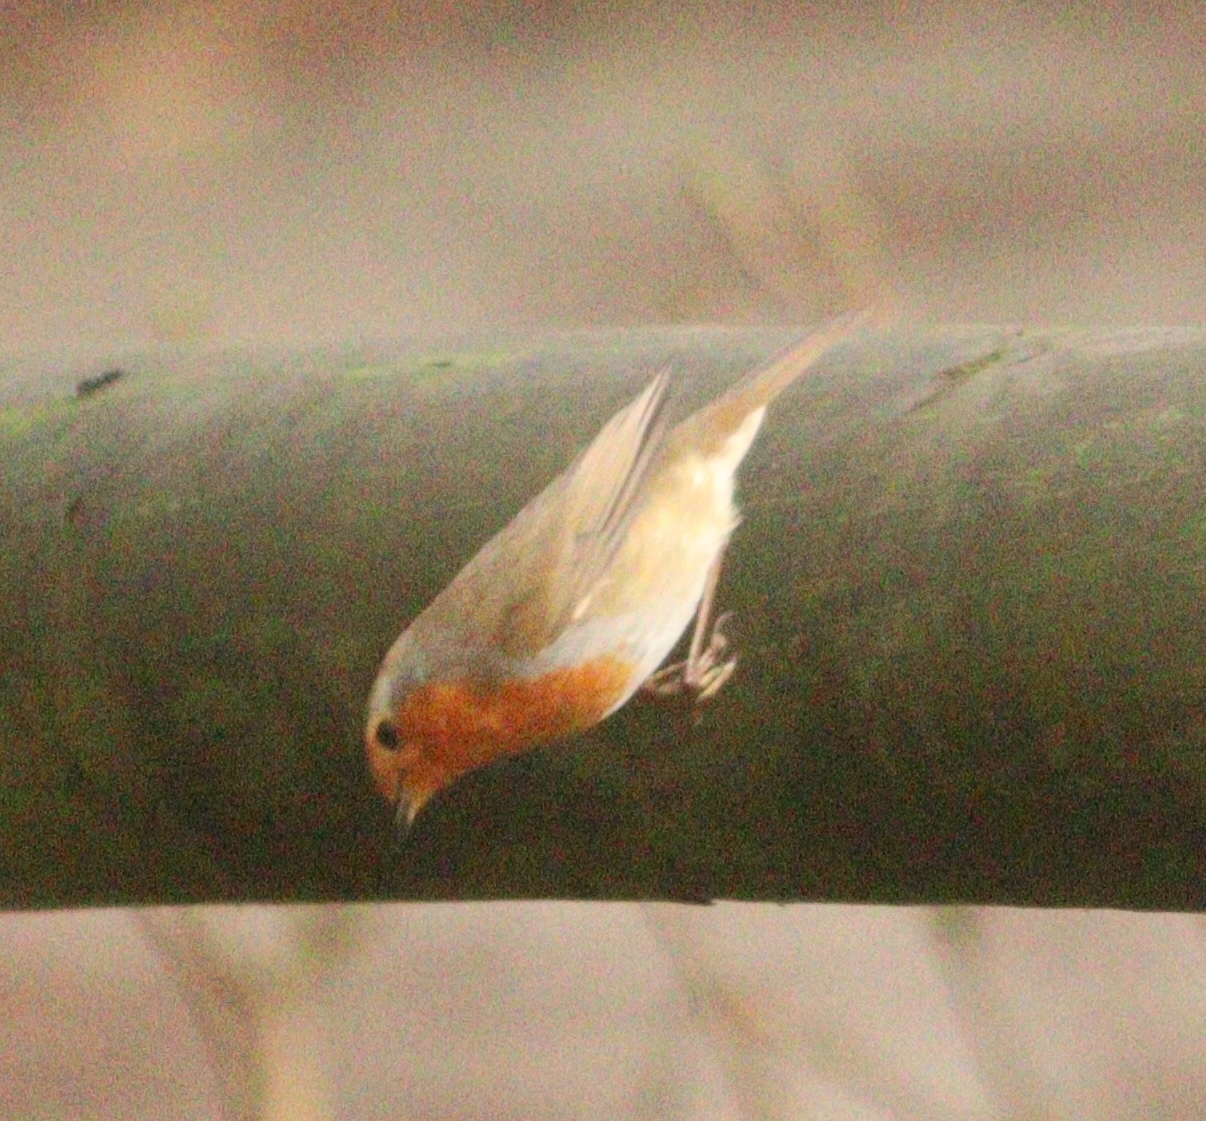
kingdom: Animalia
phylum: Chordata
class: Aves
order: Passeriformes
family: Muscicapidae
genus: Erithacus
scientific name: Erithacus rubecula
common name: European robin
